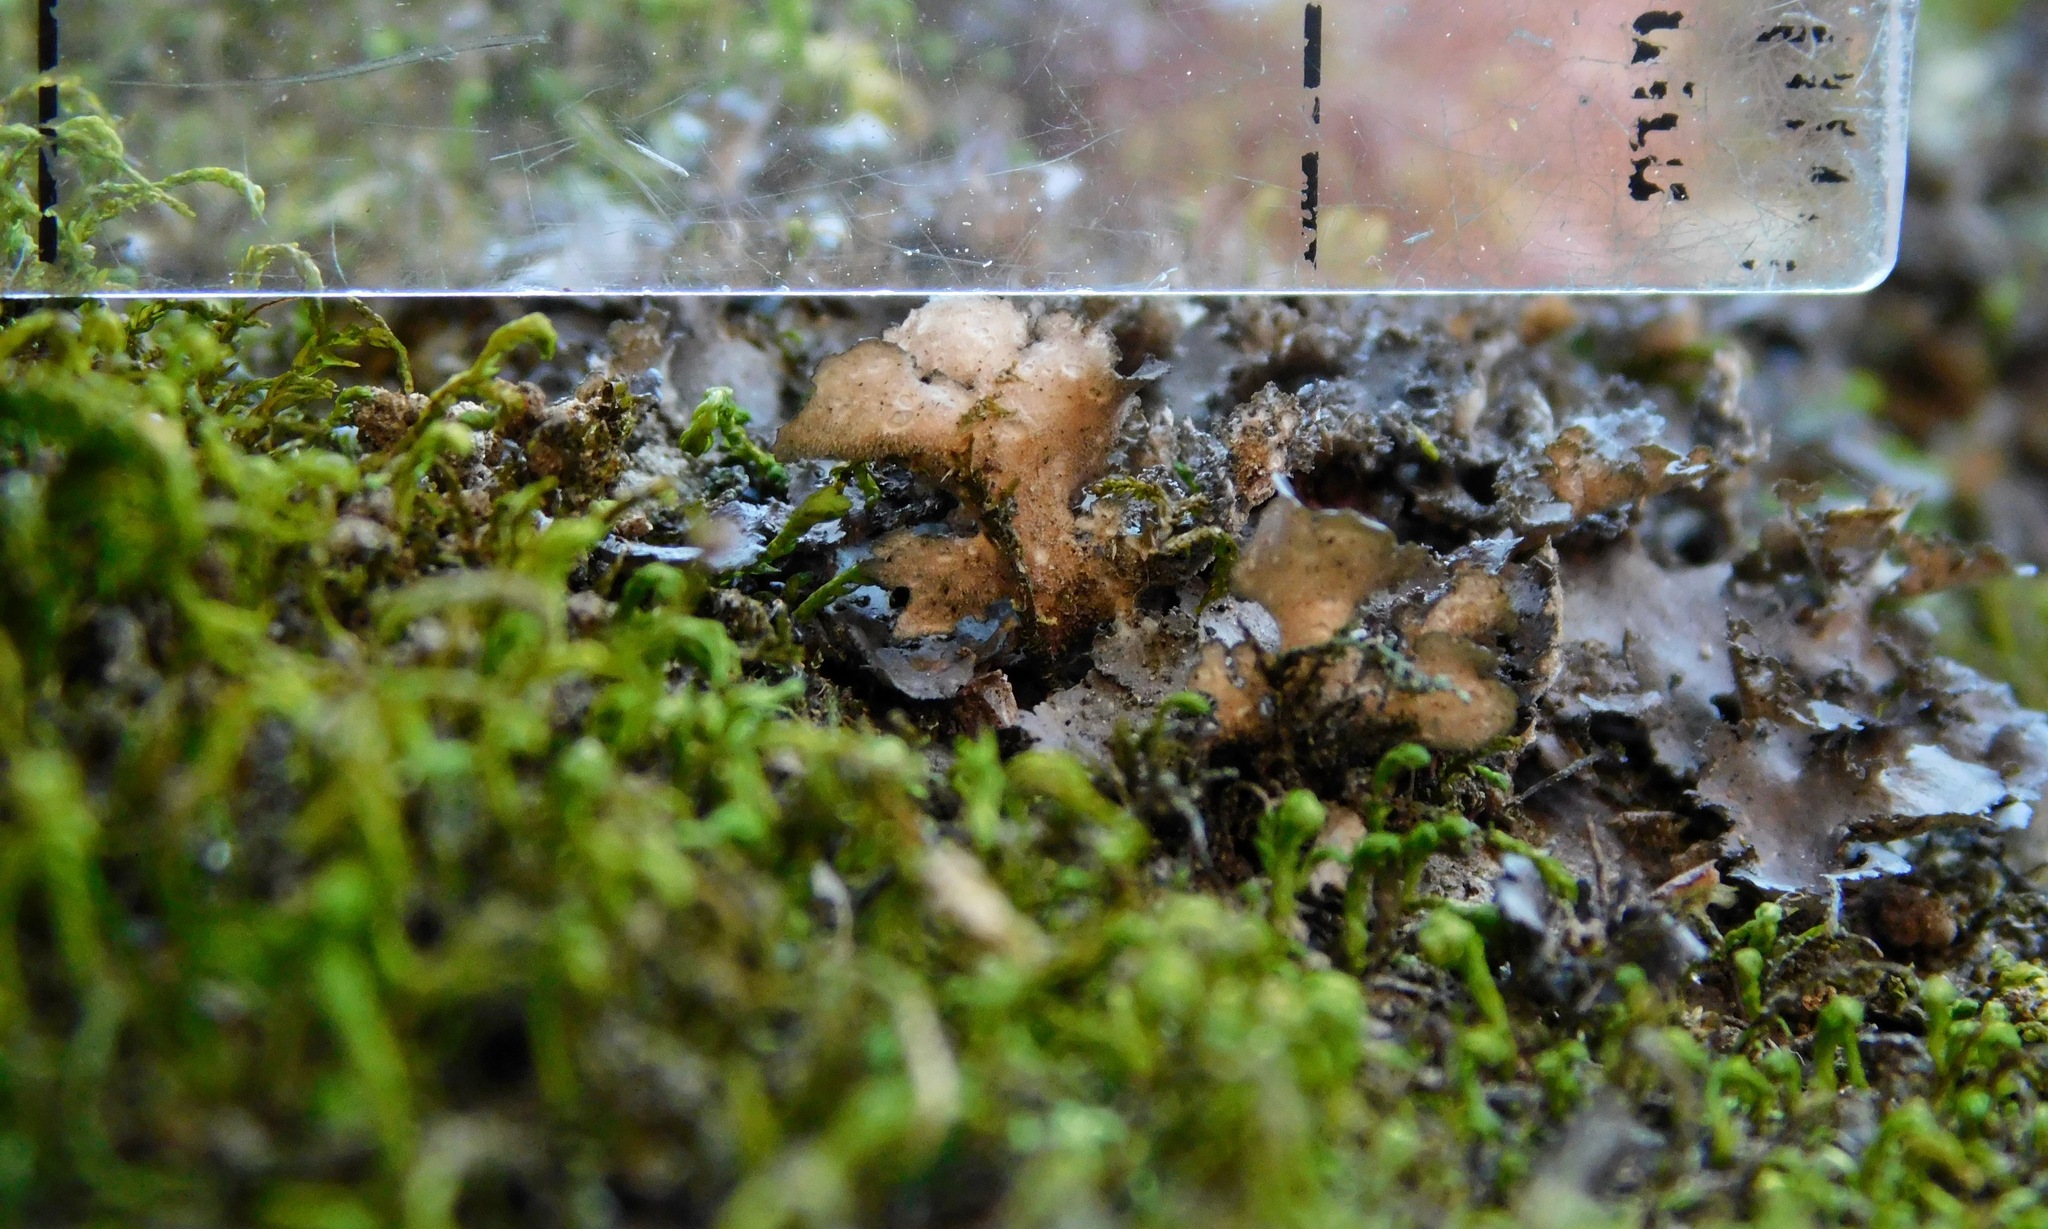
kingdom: Fungi
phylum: Ascomycota
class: Lecanoromycetes
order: Peltigerales
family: Lobariaceae
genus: Sticta
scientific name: Sticta carolinensis
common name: Carolina moon lichen
